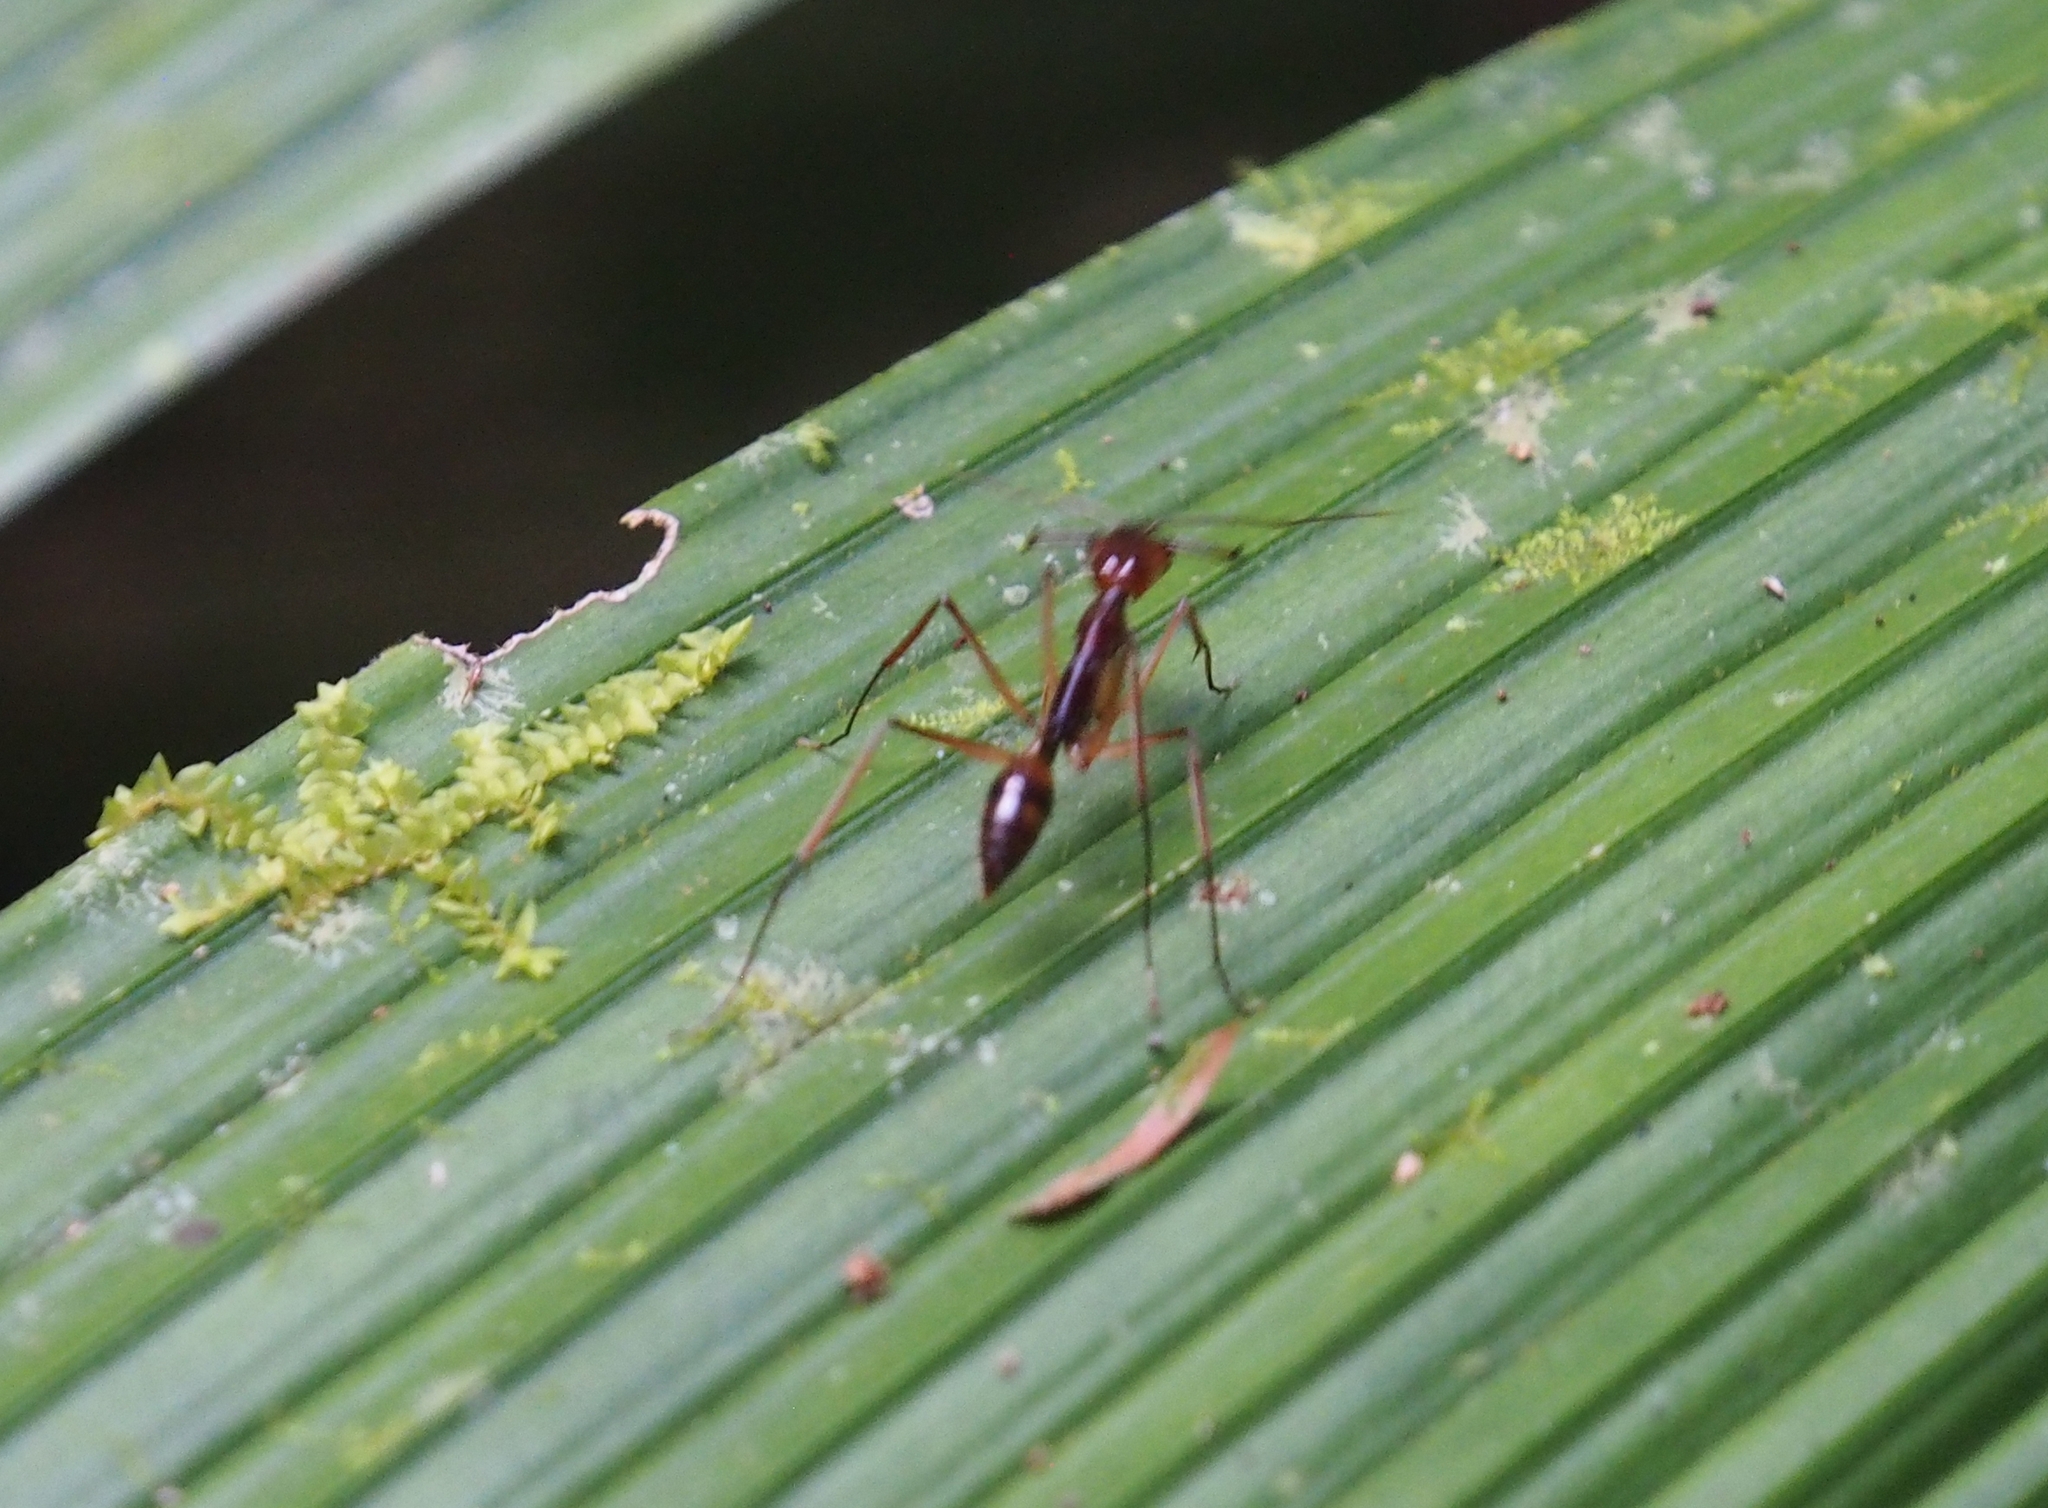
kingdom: Animalia
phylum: Arthropoda
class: Insecta
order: Hymenoptera
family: Formicidae
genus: Odontomachus
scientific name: Odontomachus hastatus
